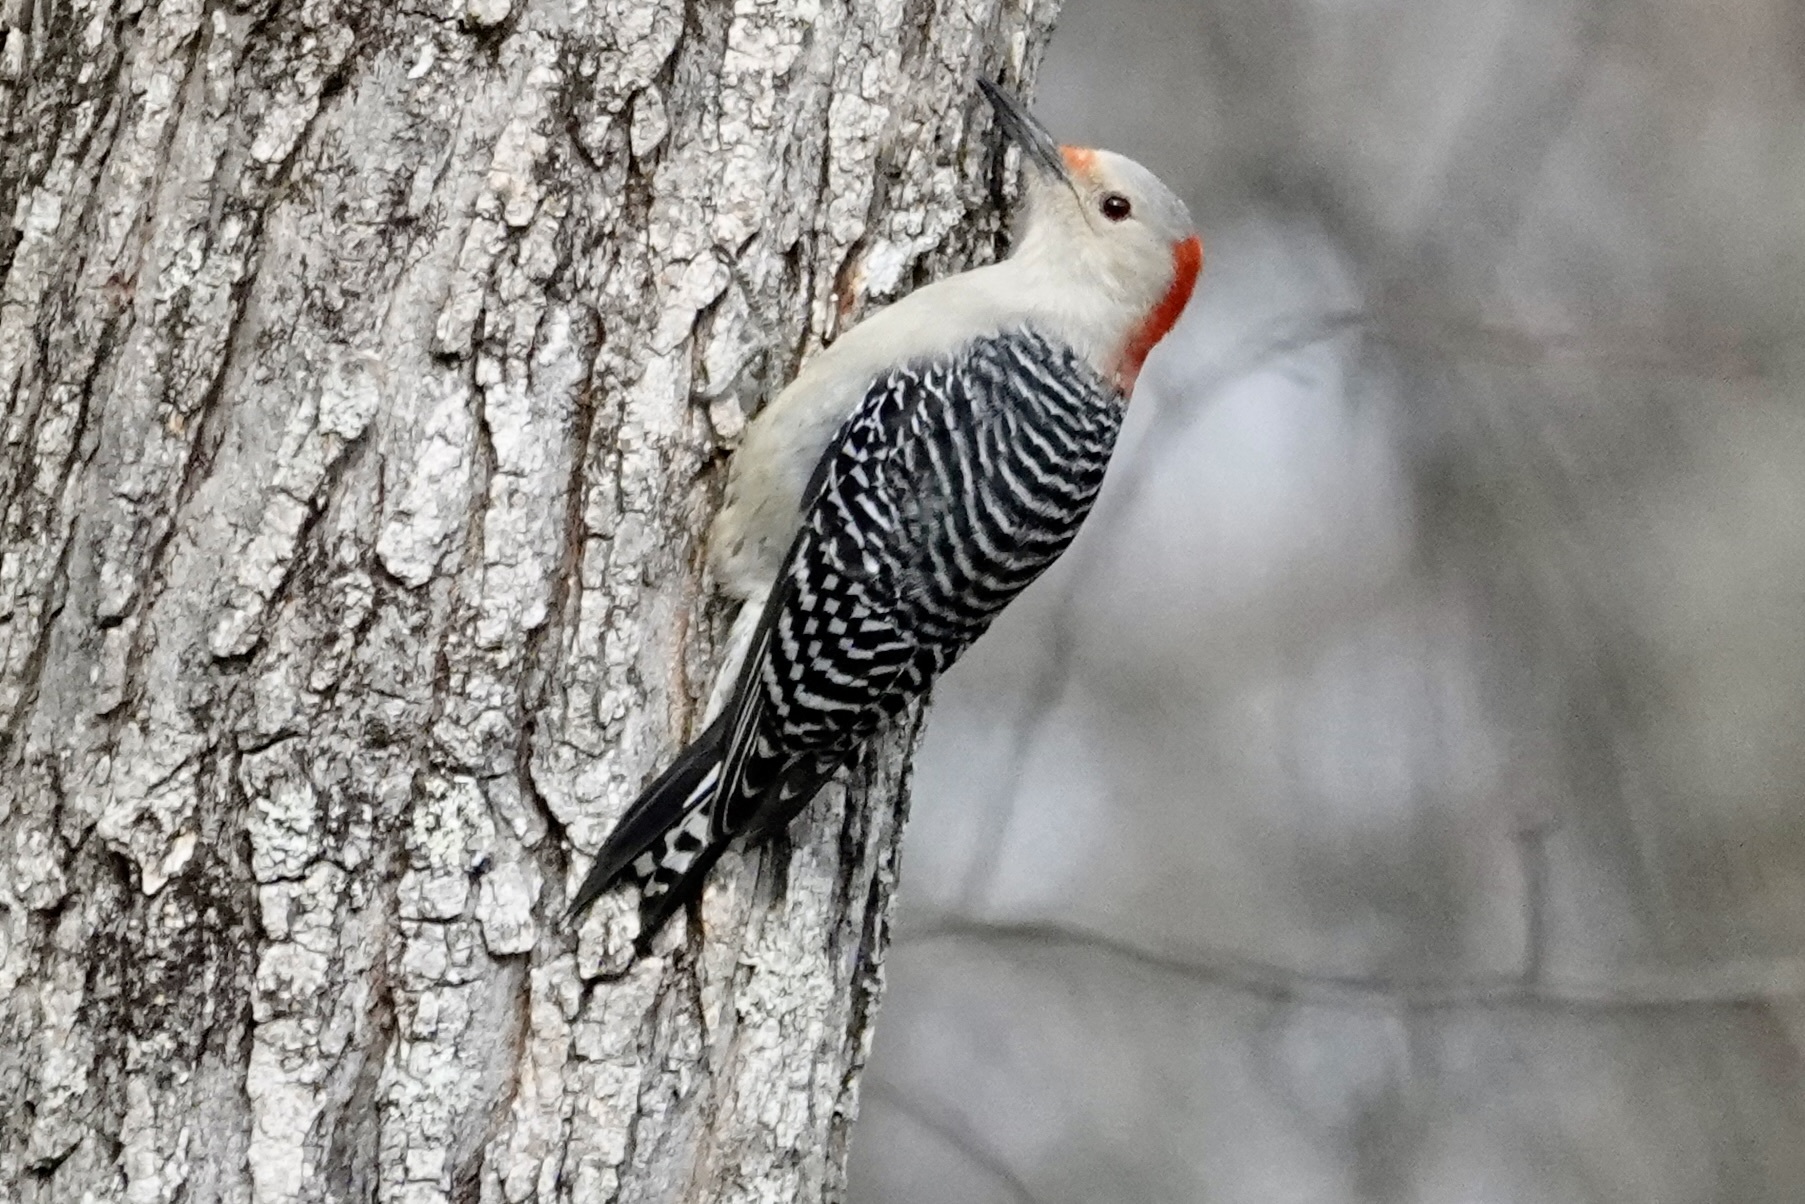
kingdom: Animalia
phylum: Chordata
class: Aves
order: Piciformes
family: Picidae
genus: Melanerpes
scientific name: Melanerpes carolinus
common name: Red-bellied woodpecker
